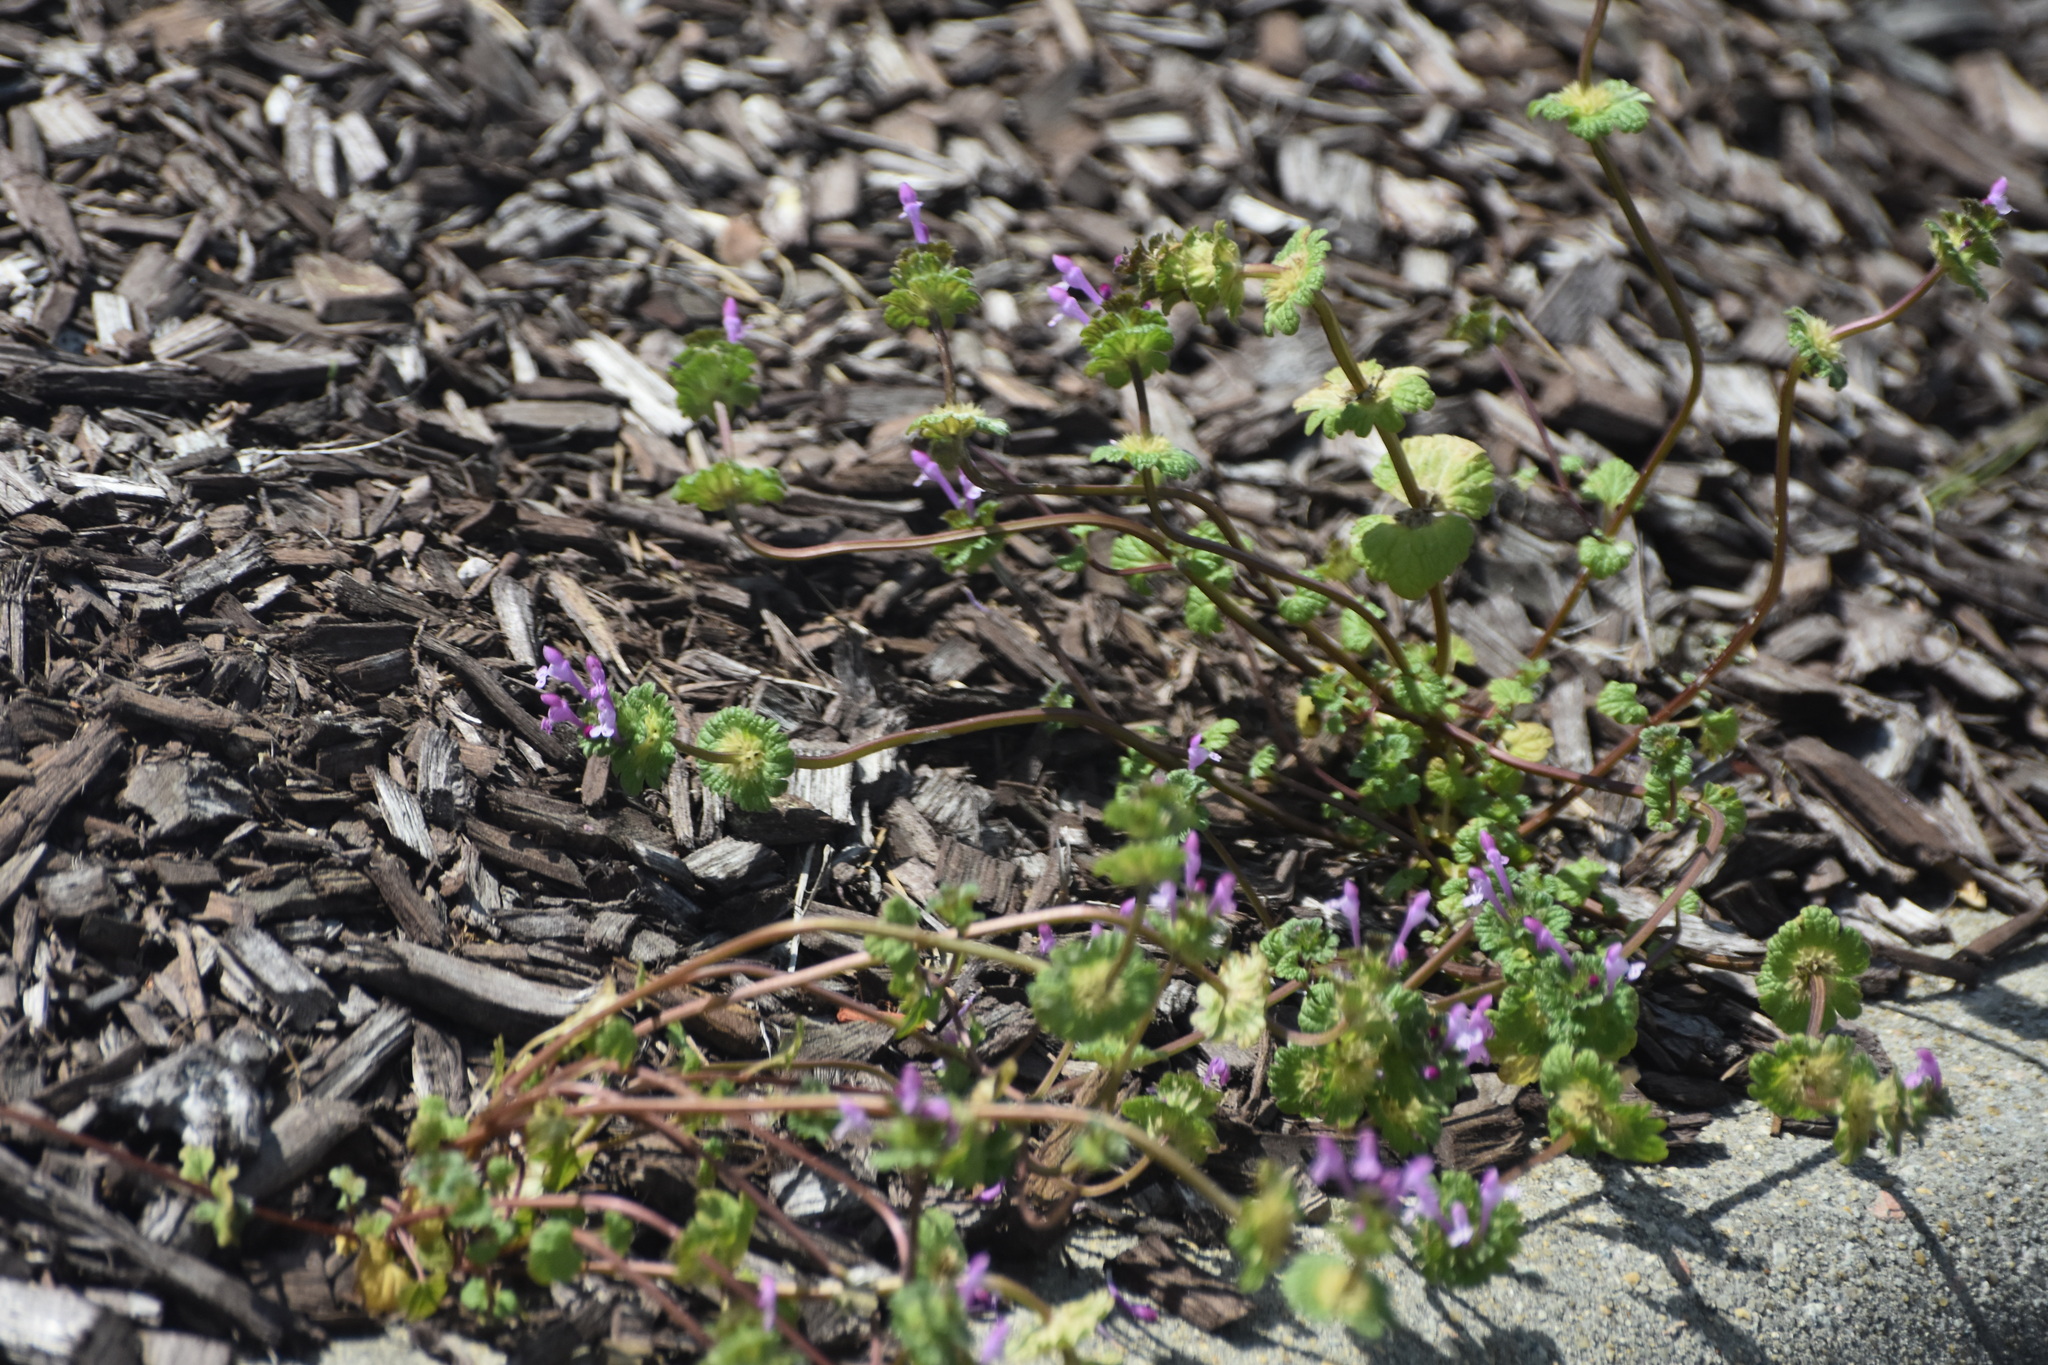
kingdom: Plantae
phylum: Tracheophyta
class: Magnoliopsida
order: Lamiales
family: Lamiaceae
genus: Lamium
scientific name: Lamium amplexicaule
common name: Henbit dead-nettle
